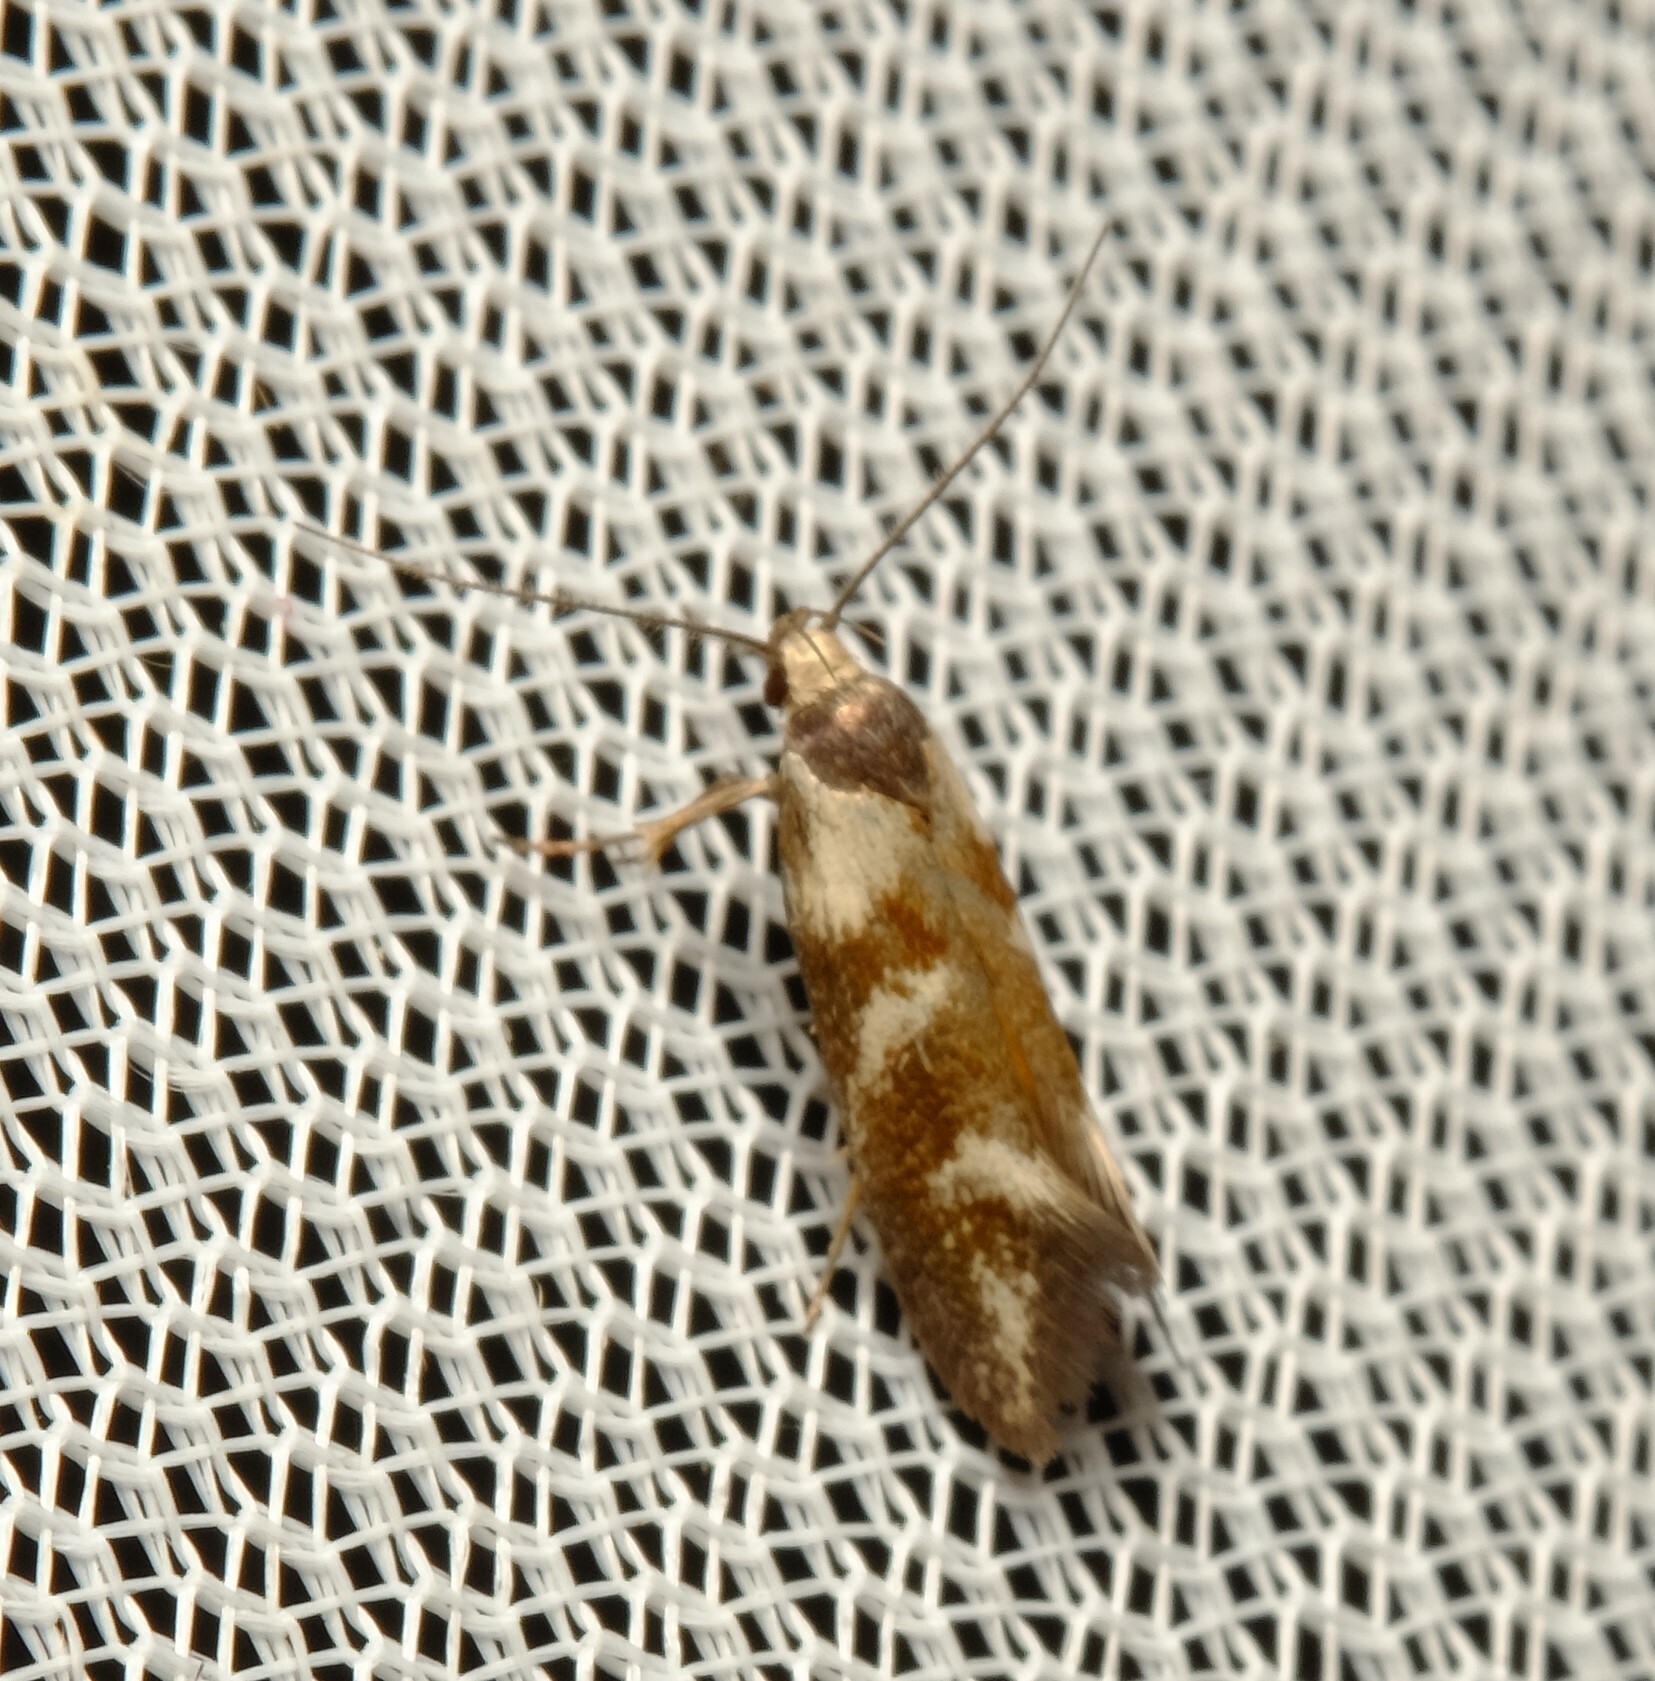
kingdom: Animalia
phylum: Arthropoda
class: Insecta
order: Lepidoptera
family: Oecophoridae
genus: Lonchoptena
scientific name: Lonchoptena episcota
